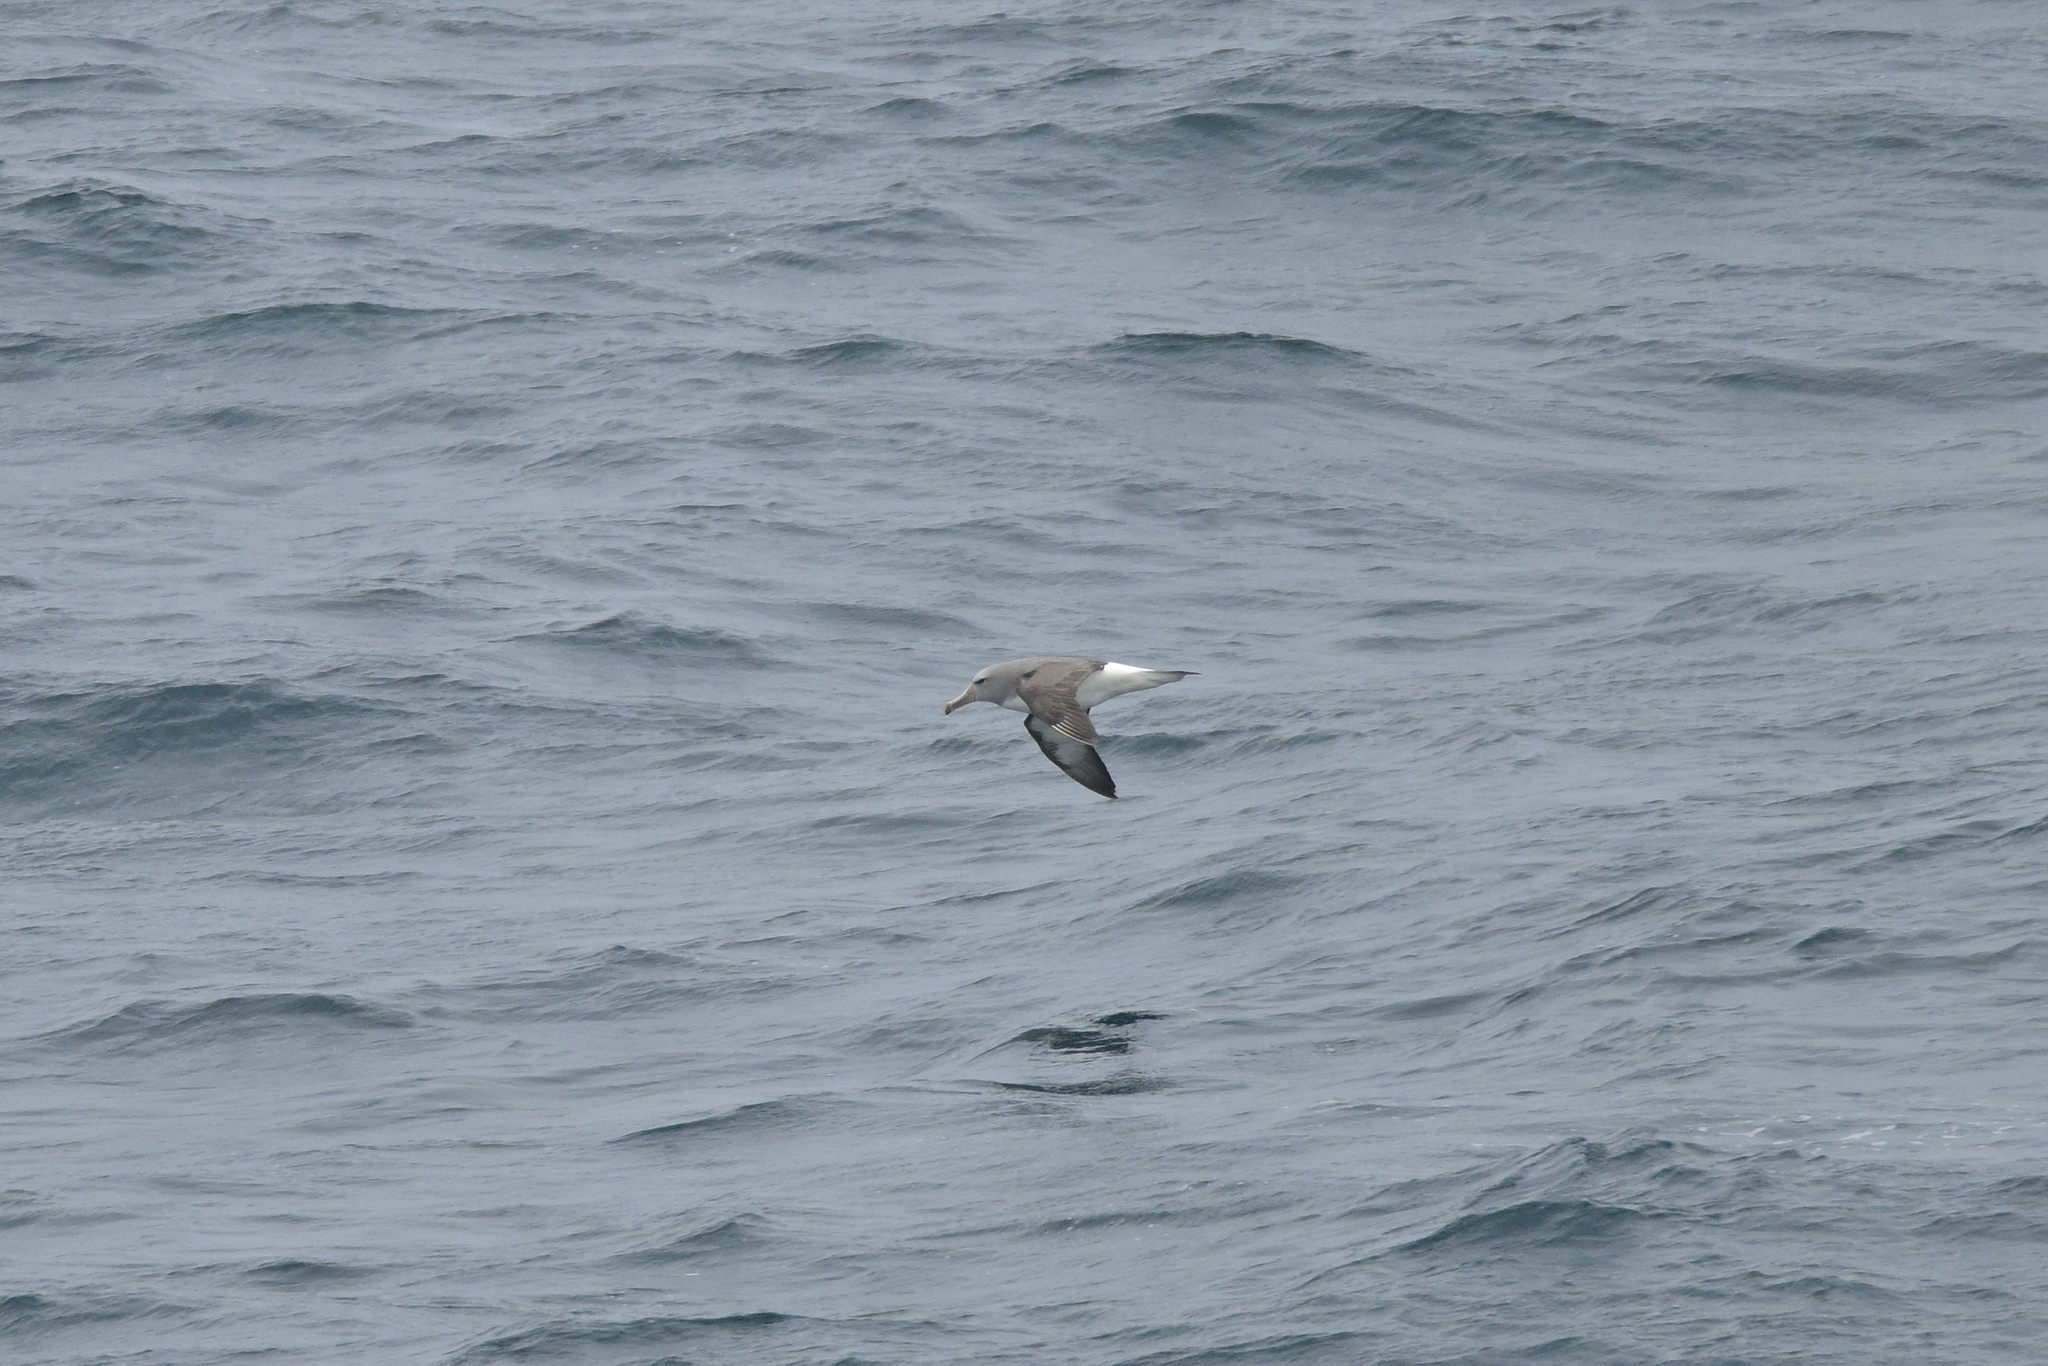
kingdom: Animalia
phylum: Chordata
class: Aves
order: Procellariiformes
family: Diomedeidae
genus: Thalassarche
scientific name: Thalassarche salvini
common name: Salvin's albatross
